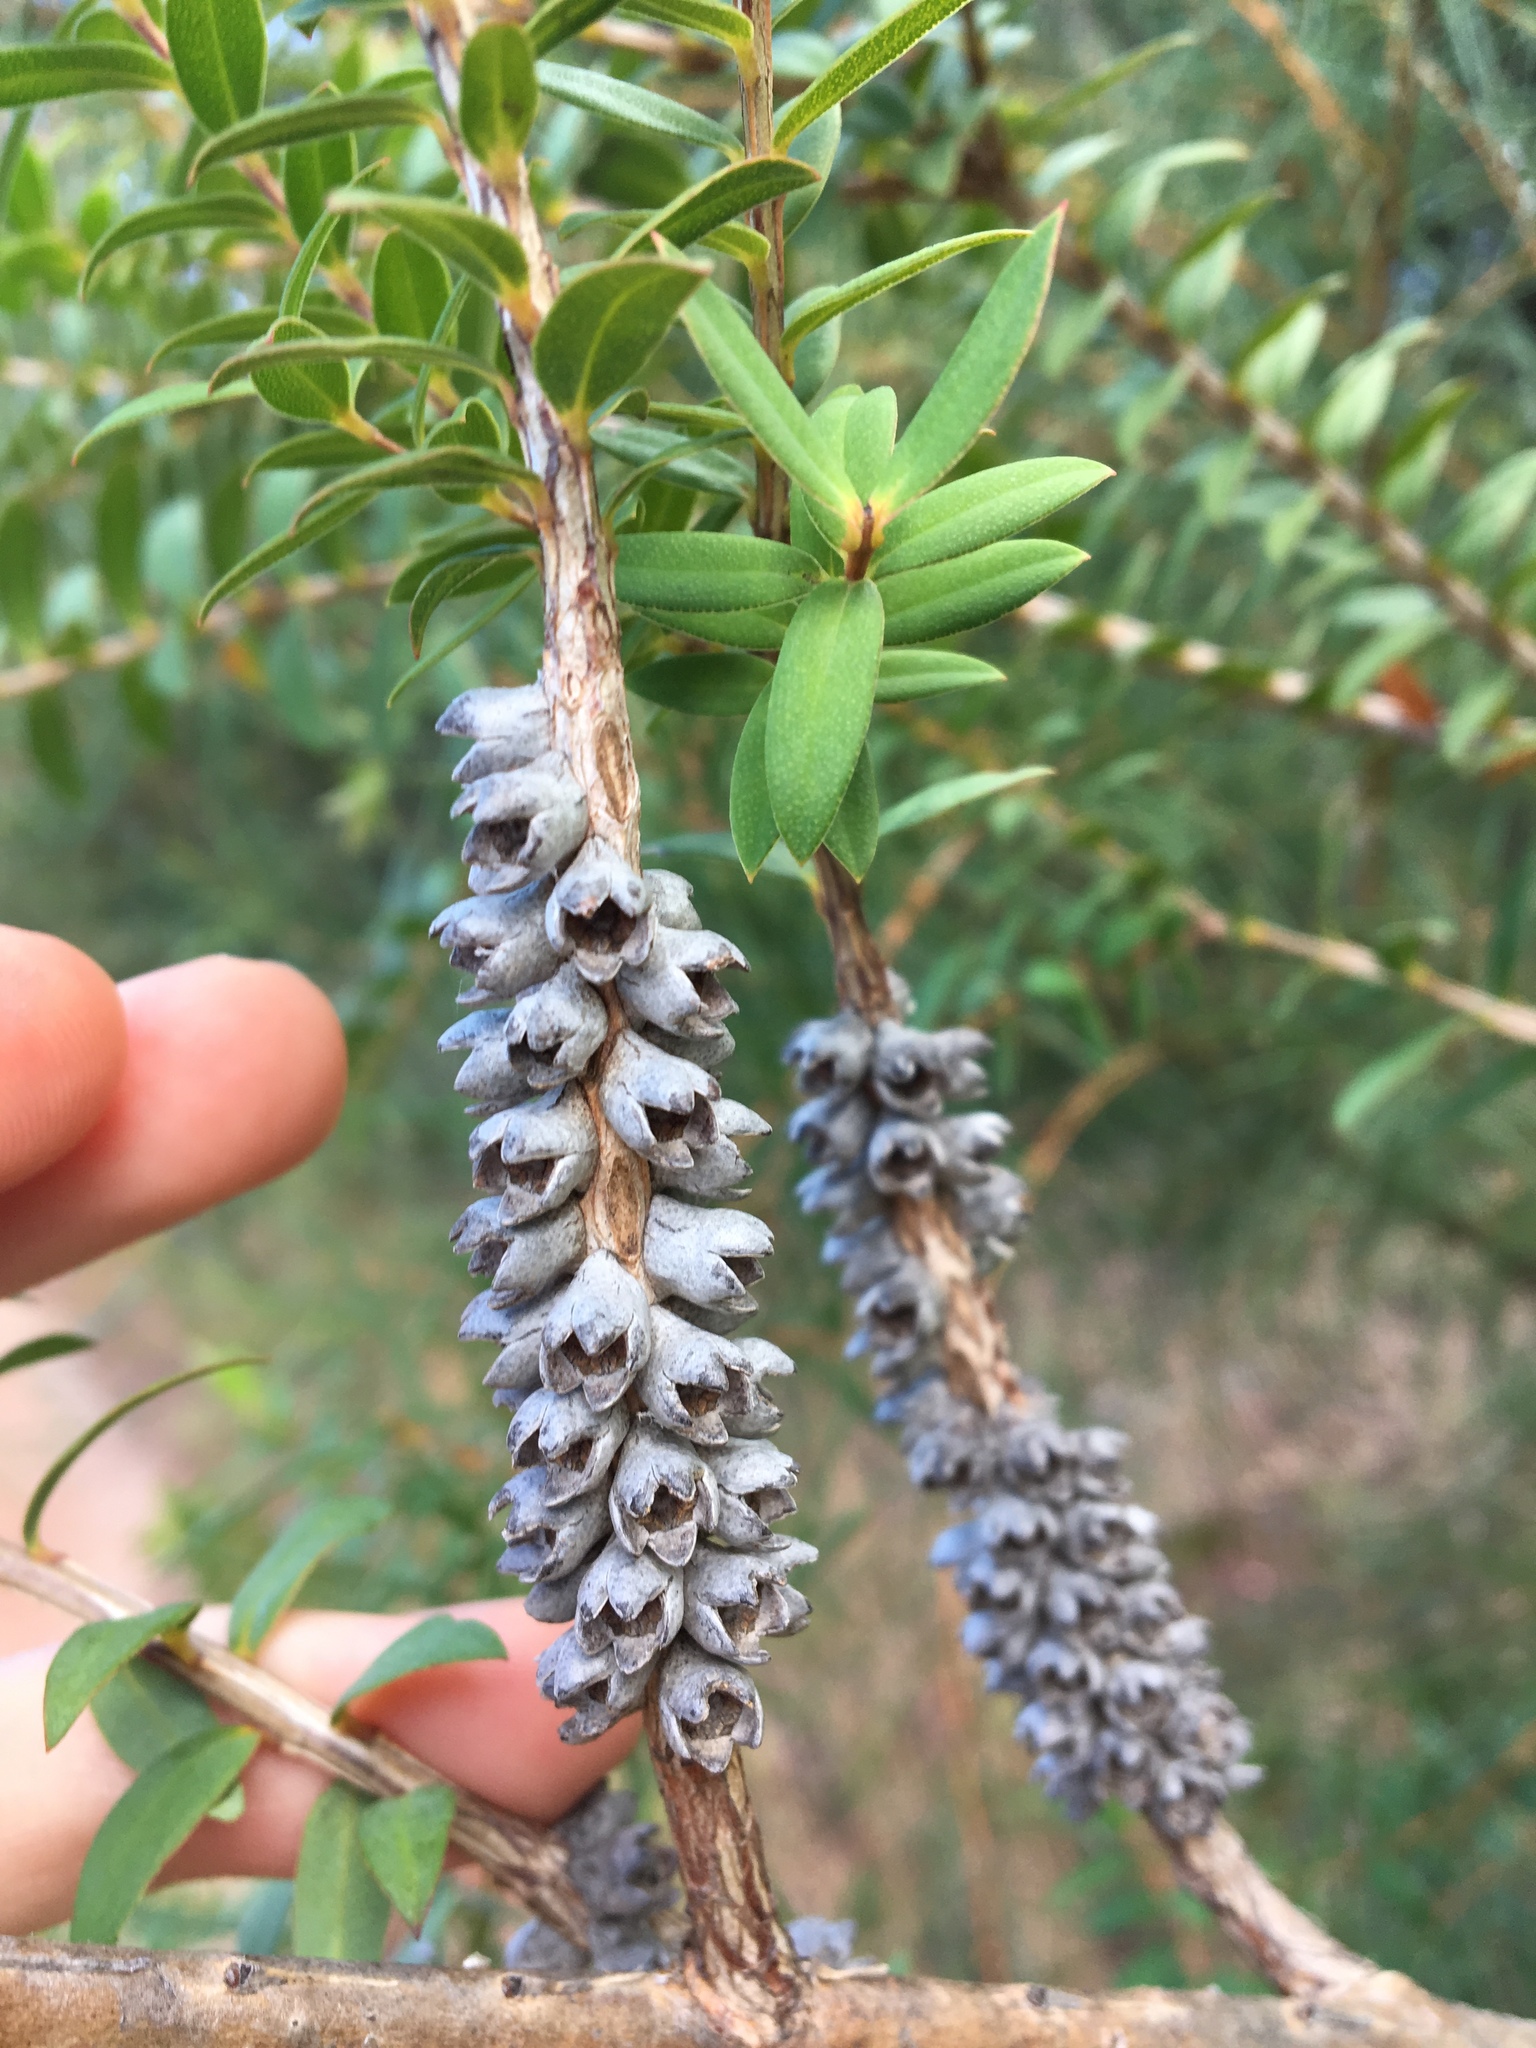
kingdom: Plantae
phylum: Tracheophyta
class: Magnoliopsida
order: Myrtales
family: Myrtaceae
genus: Melaleuca
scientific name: Melaleuca hypericifolia
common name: Red honey myrtle
